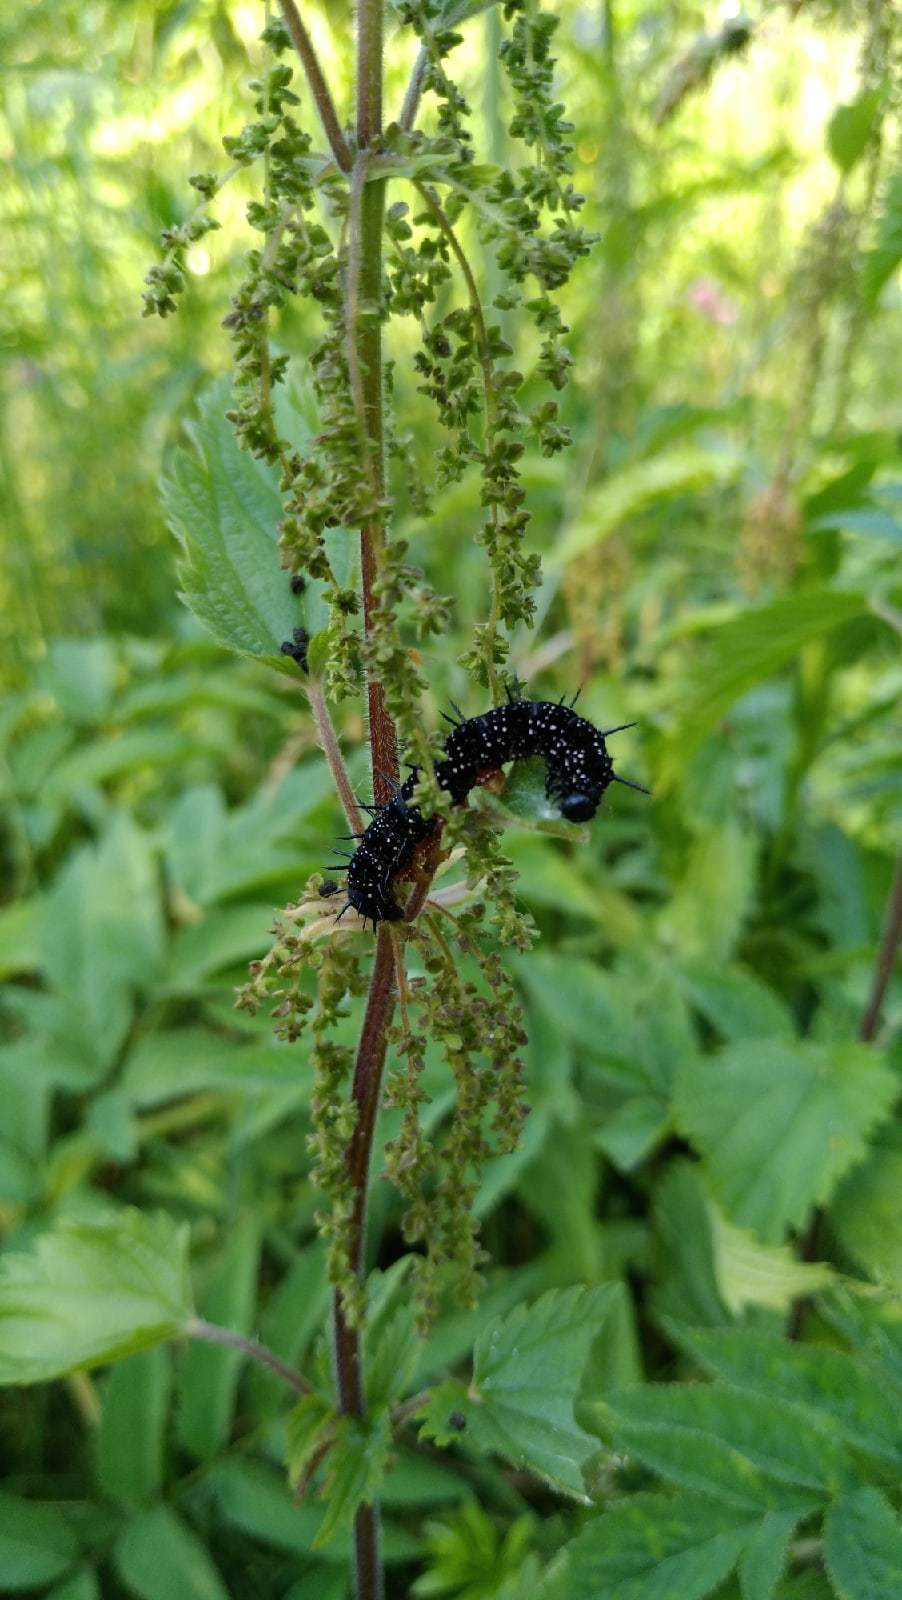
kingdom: Animalia
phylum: Arthropoda
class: Insecta
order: Lepidoptera
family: Nymphalidae
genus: Aglais
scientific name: Aglais io
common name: Peacock
